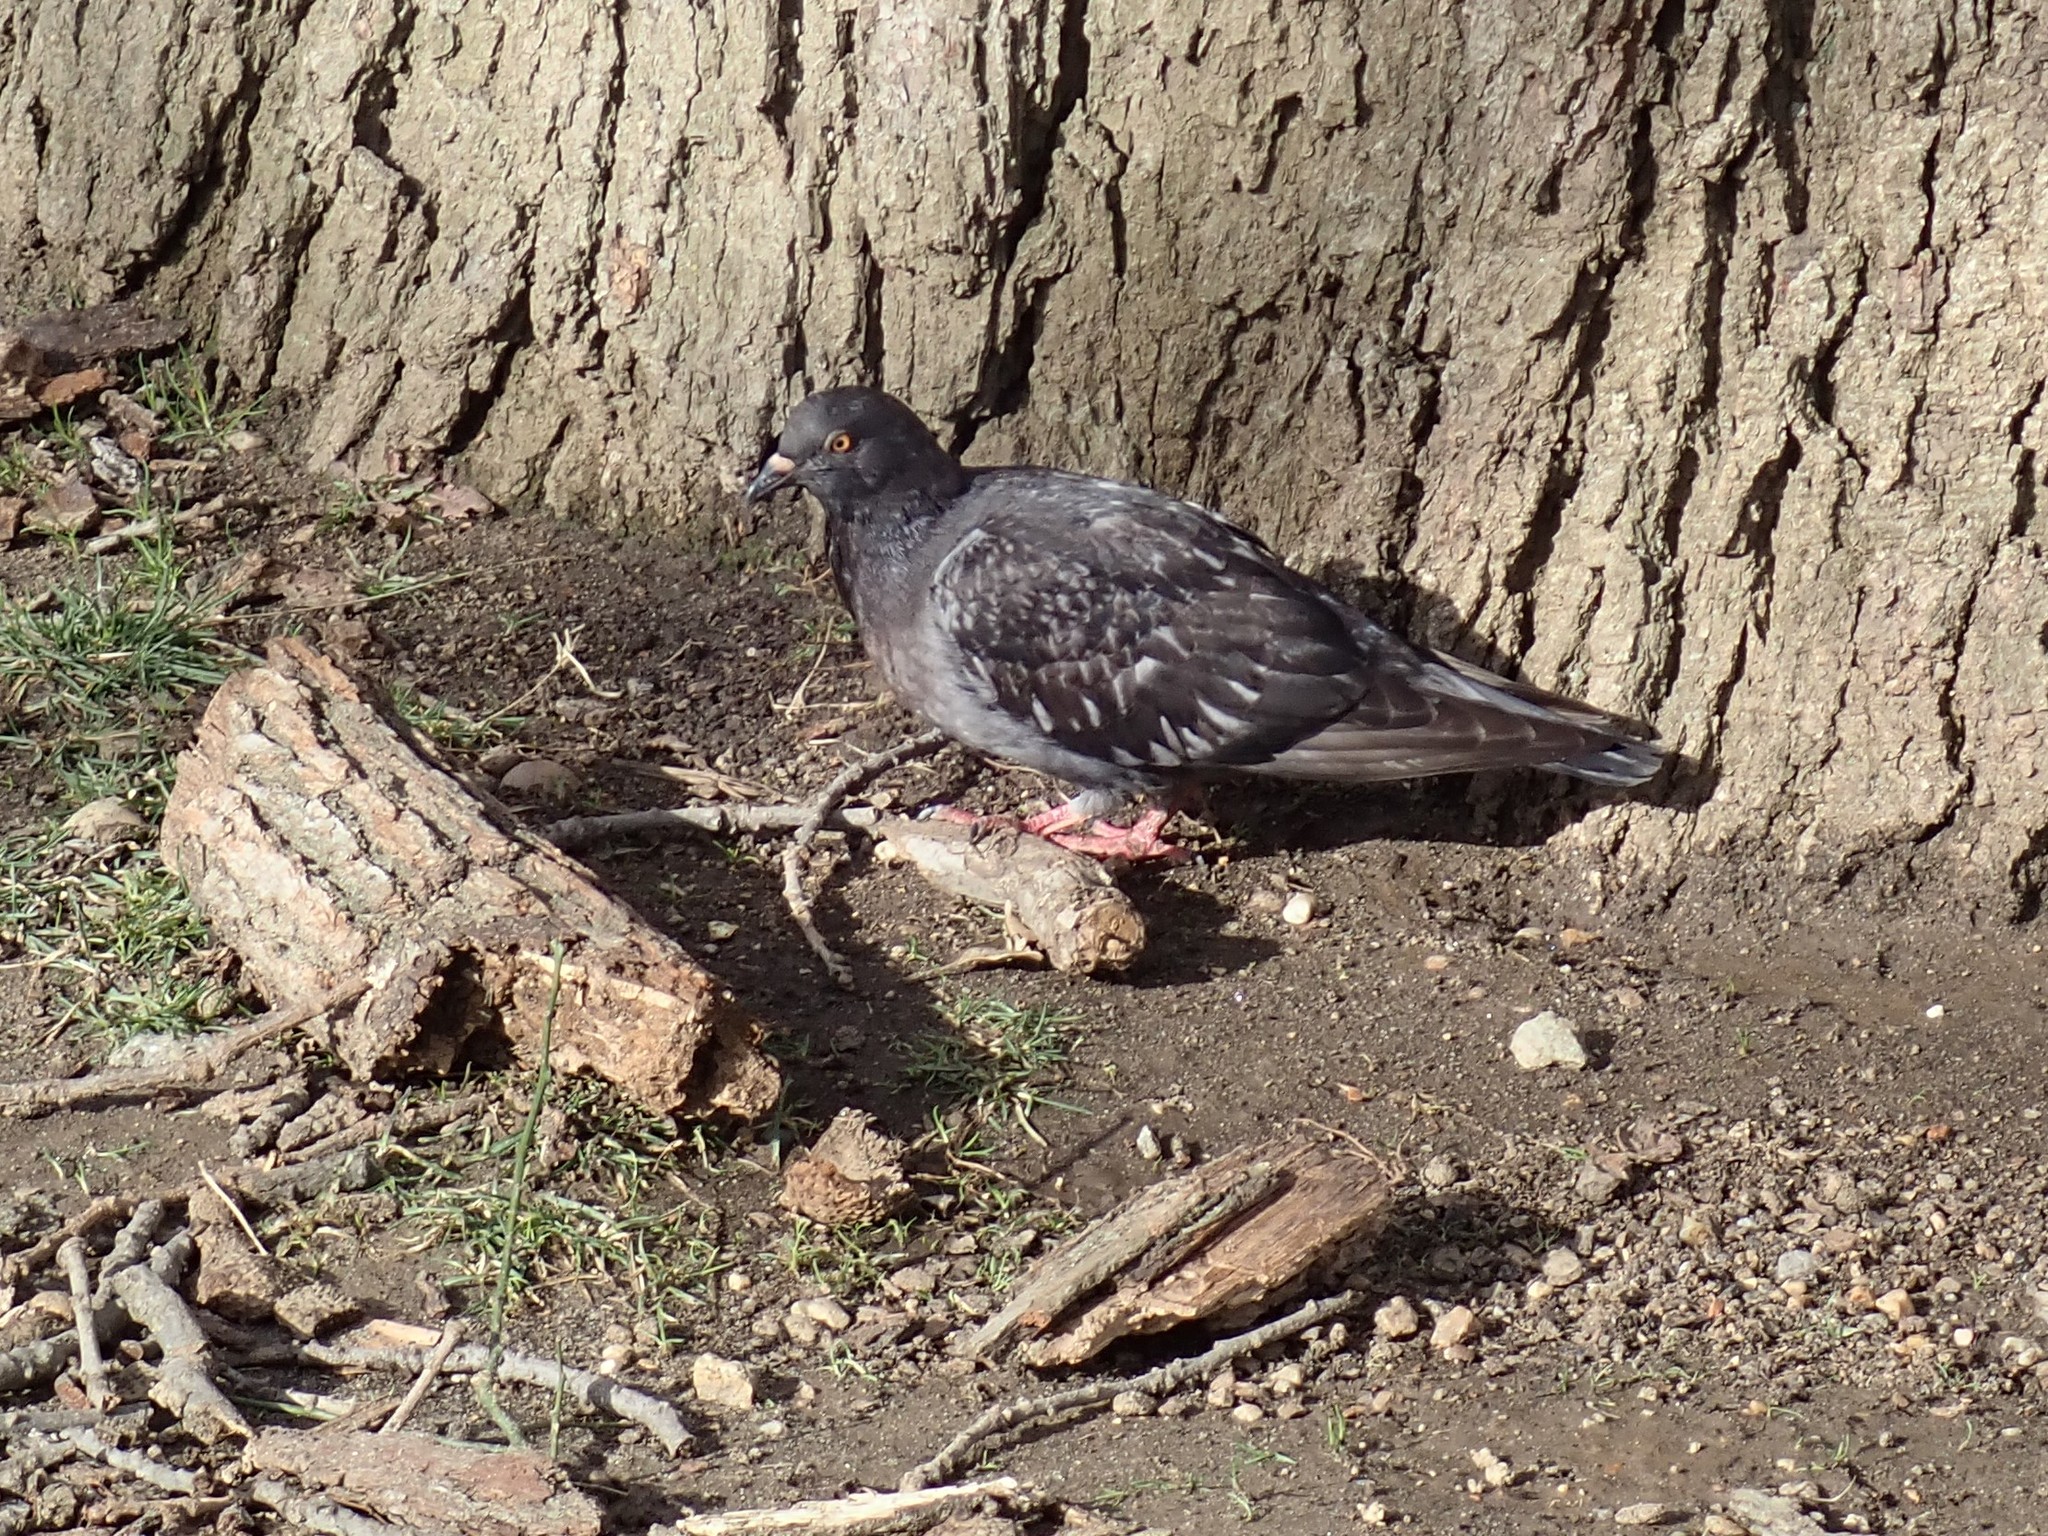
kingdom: Animalia
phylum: Chordata
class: Aves
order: Columbiformes
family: Columbidae
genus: Columba
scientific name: Columba livia
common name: Rock pigeon
